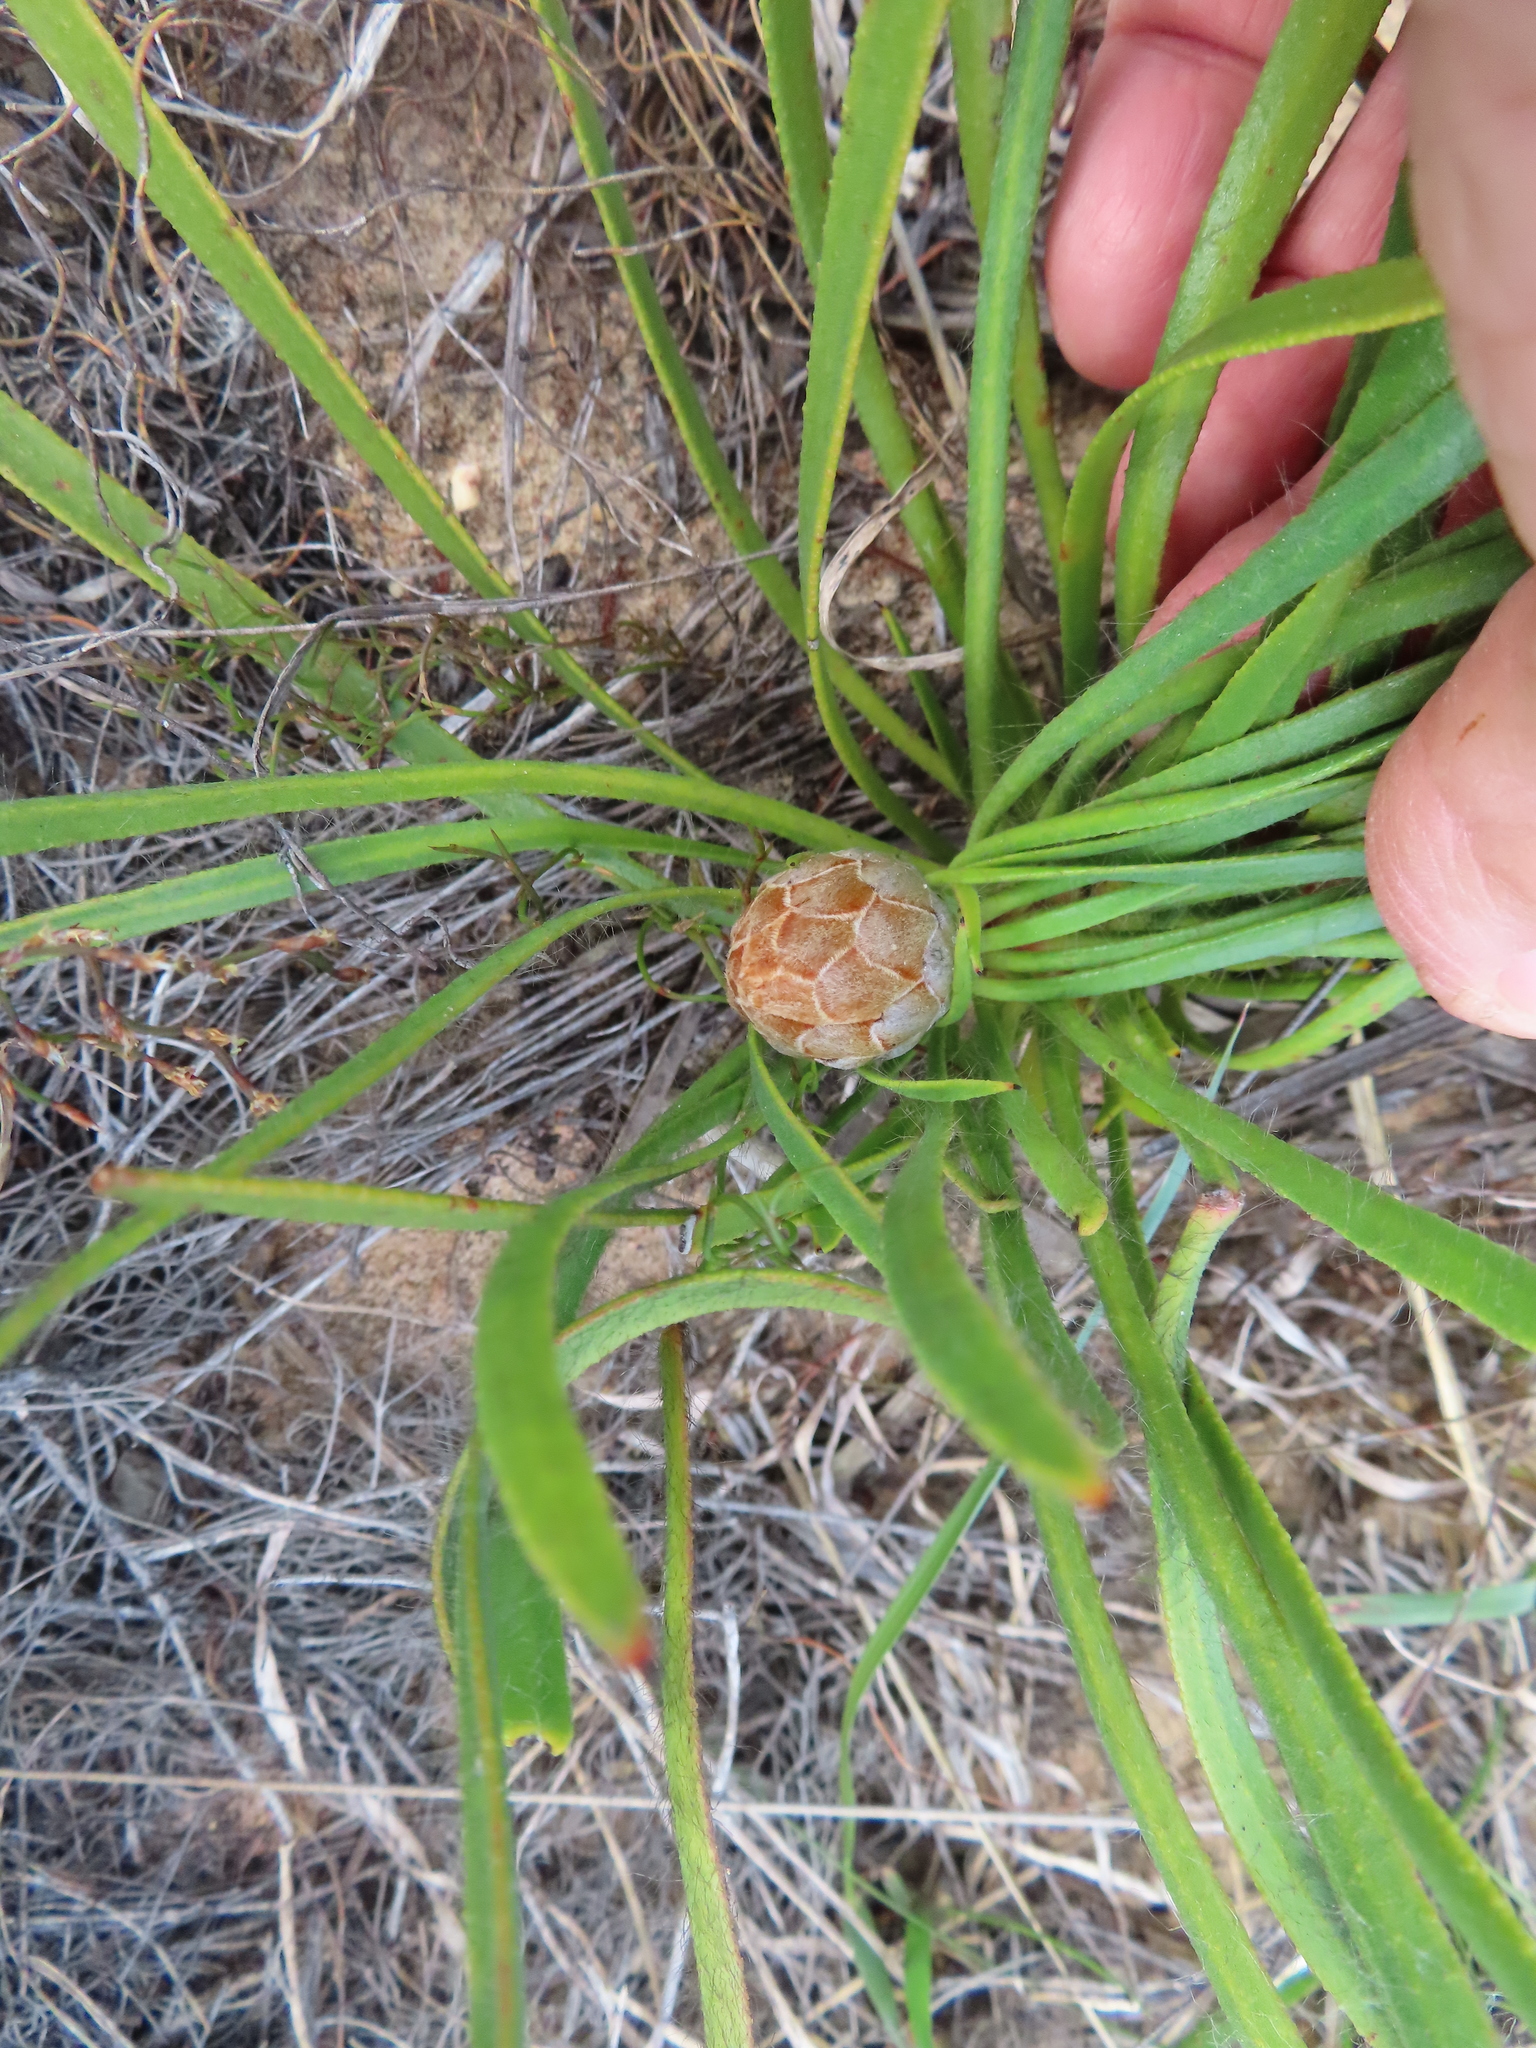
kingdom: Plantae
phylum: Tracheophyta
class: Magnoliopsida
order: Proteales
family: Proteaceae
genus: Protea
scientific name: Protea aspera
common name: Rough-leaf sugarbush
